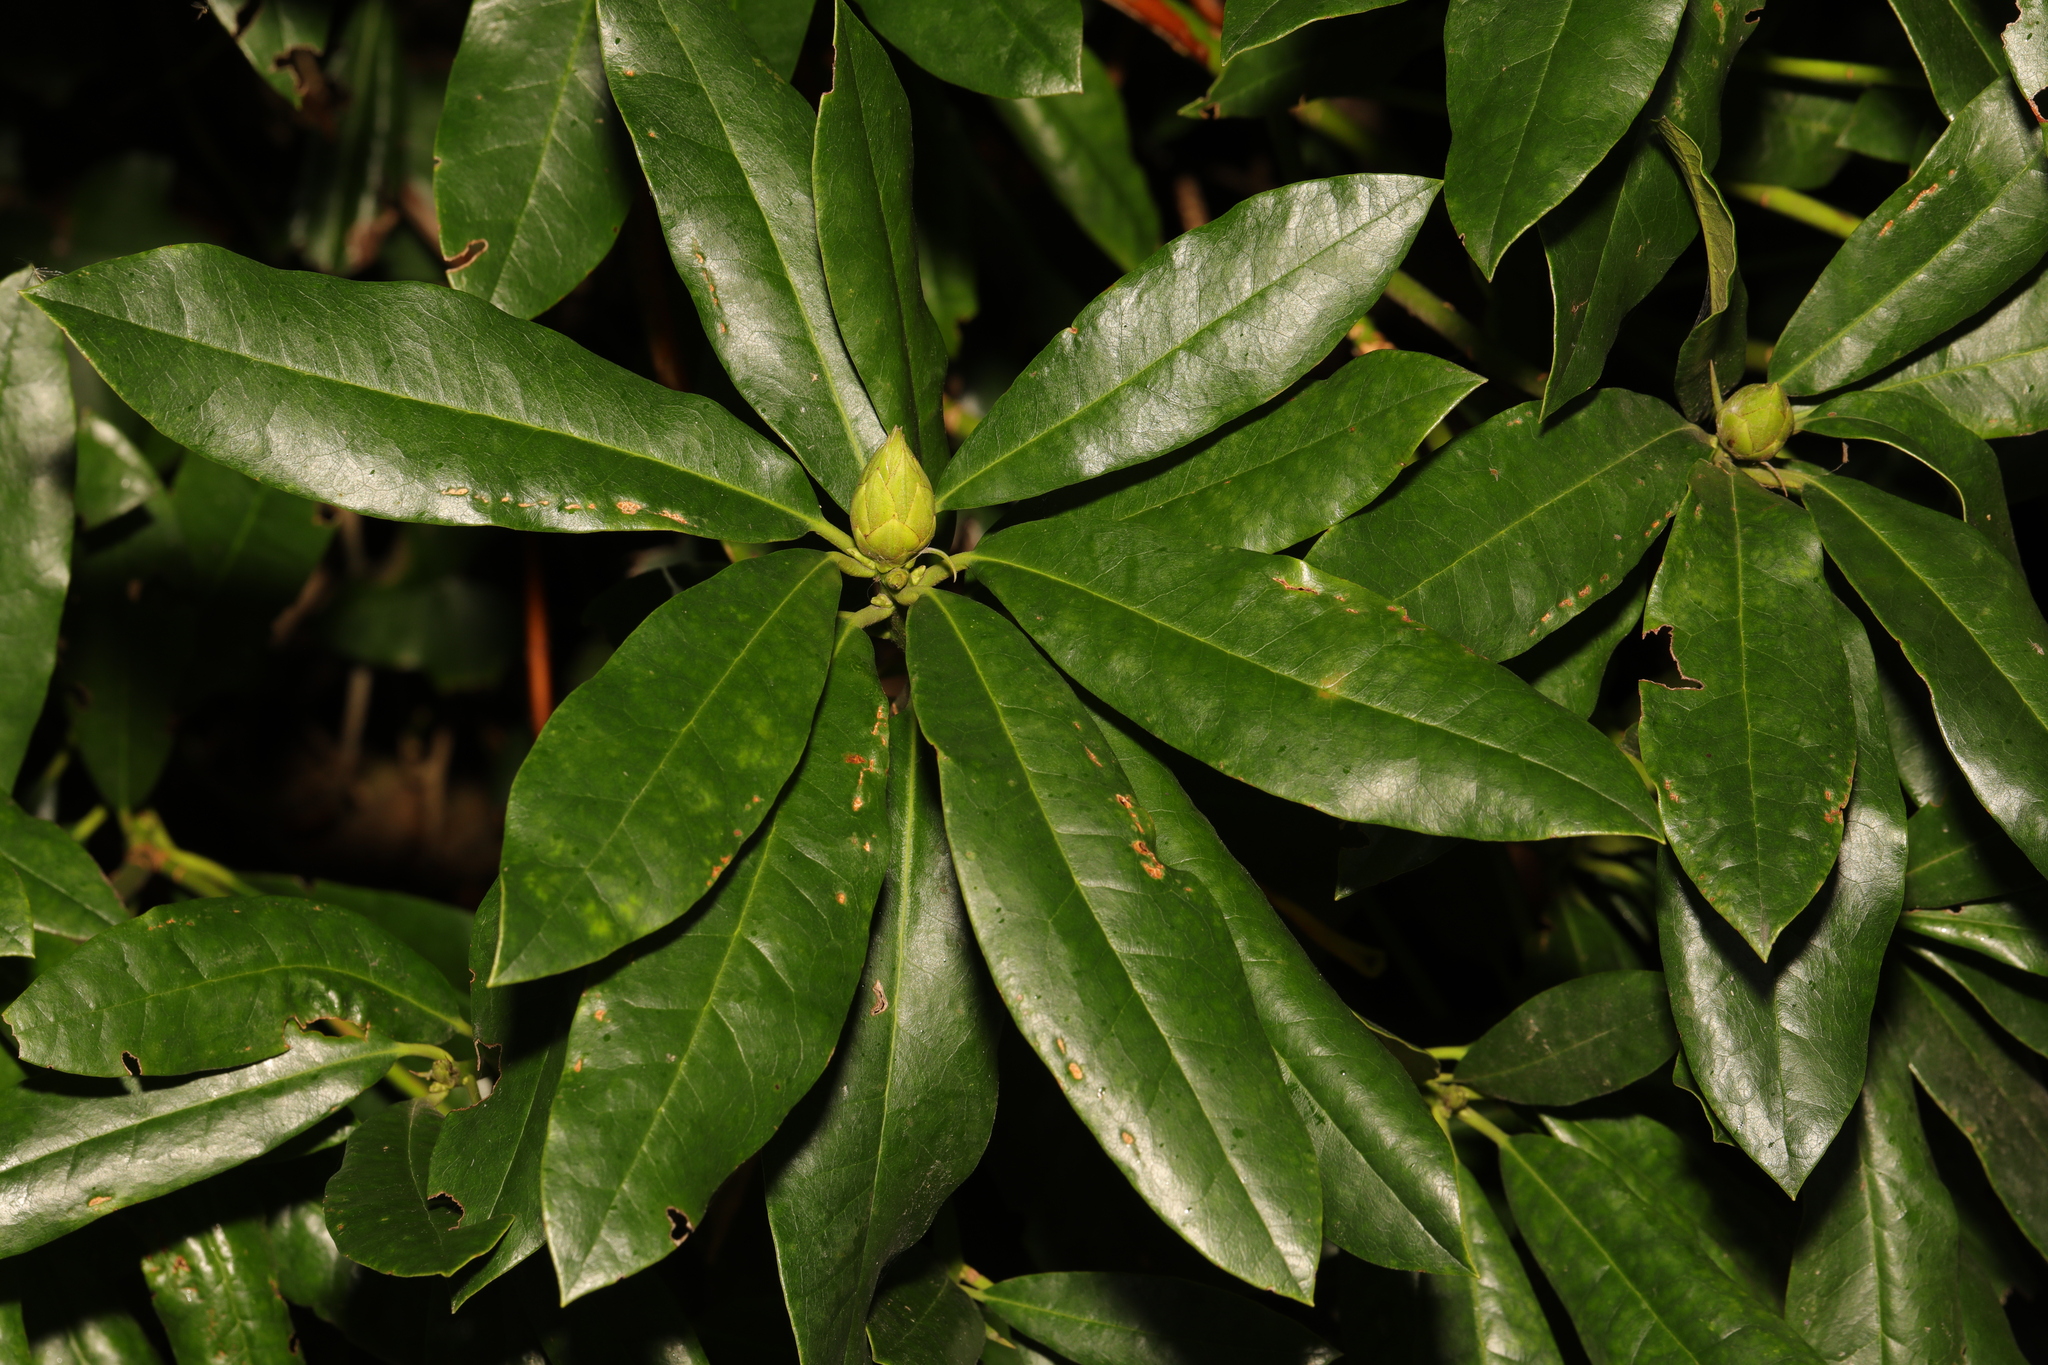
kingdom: Plantae
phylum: Tracheophyta
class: Magnoliopsida
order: Ericales
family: Ericaceae
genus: Rhododendron
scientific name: Rhododendron ponticum
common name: Rhododendron
